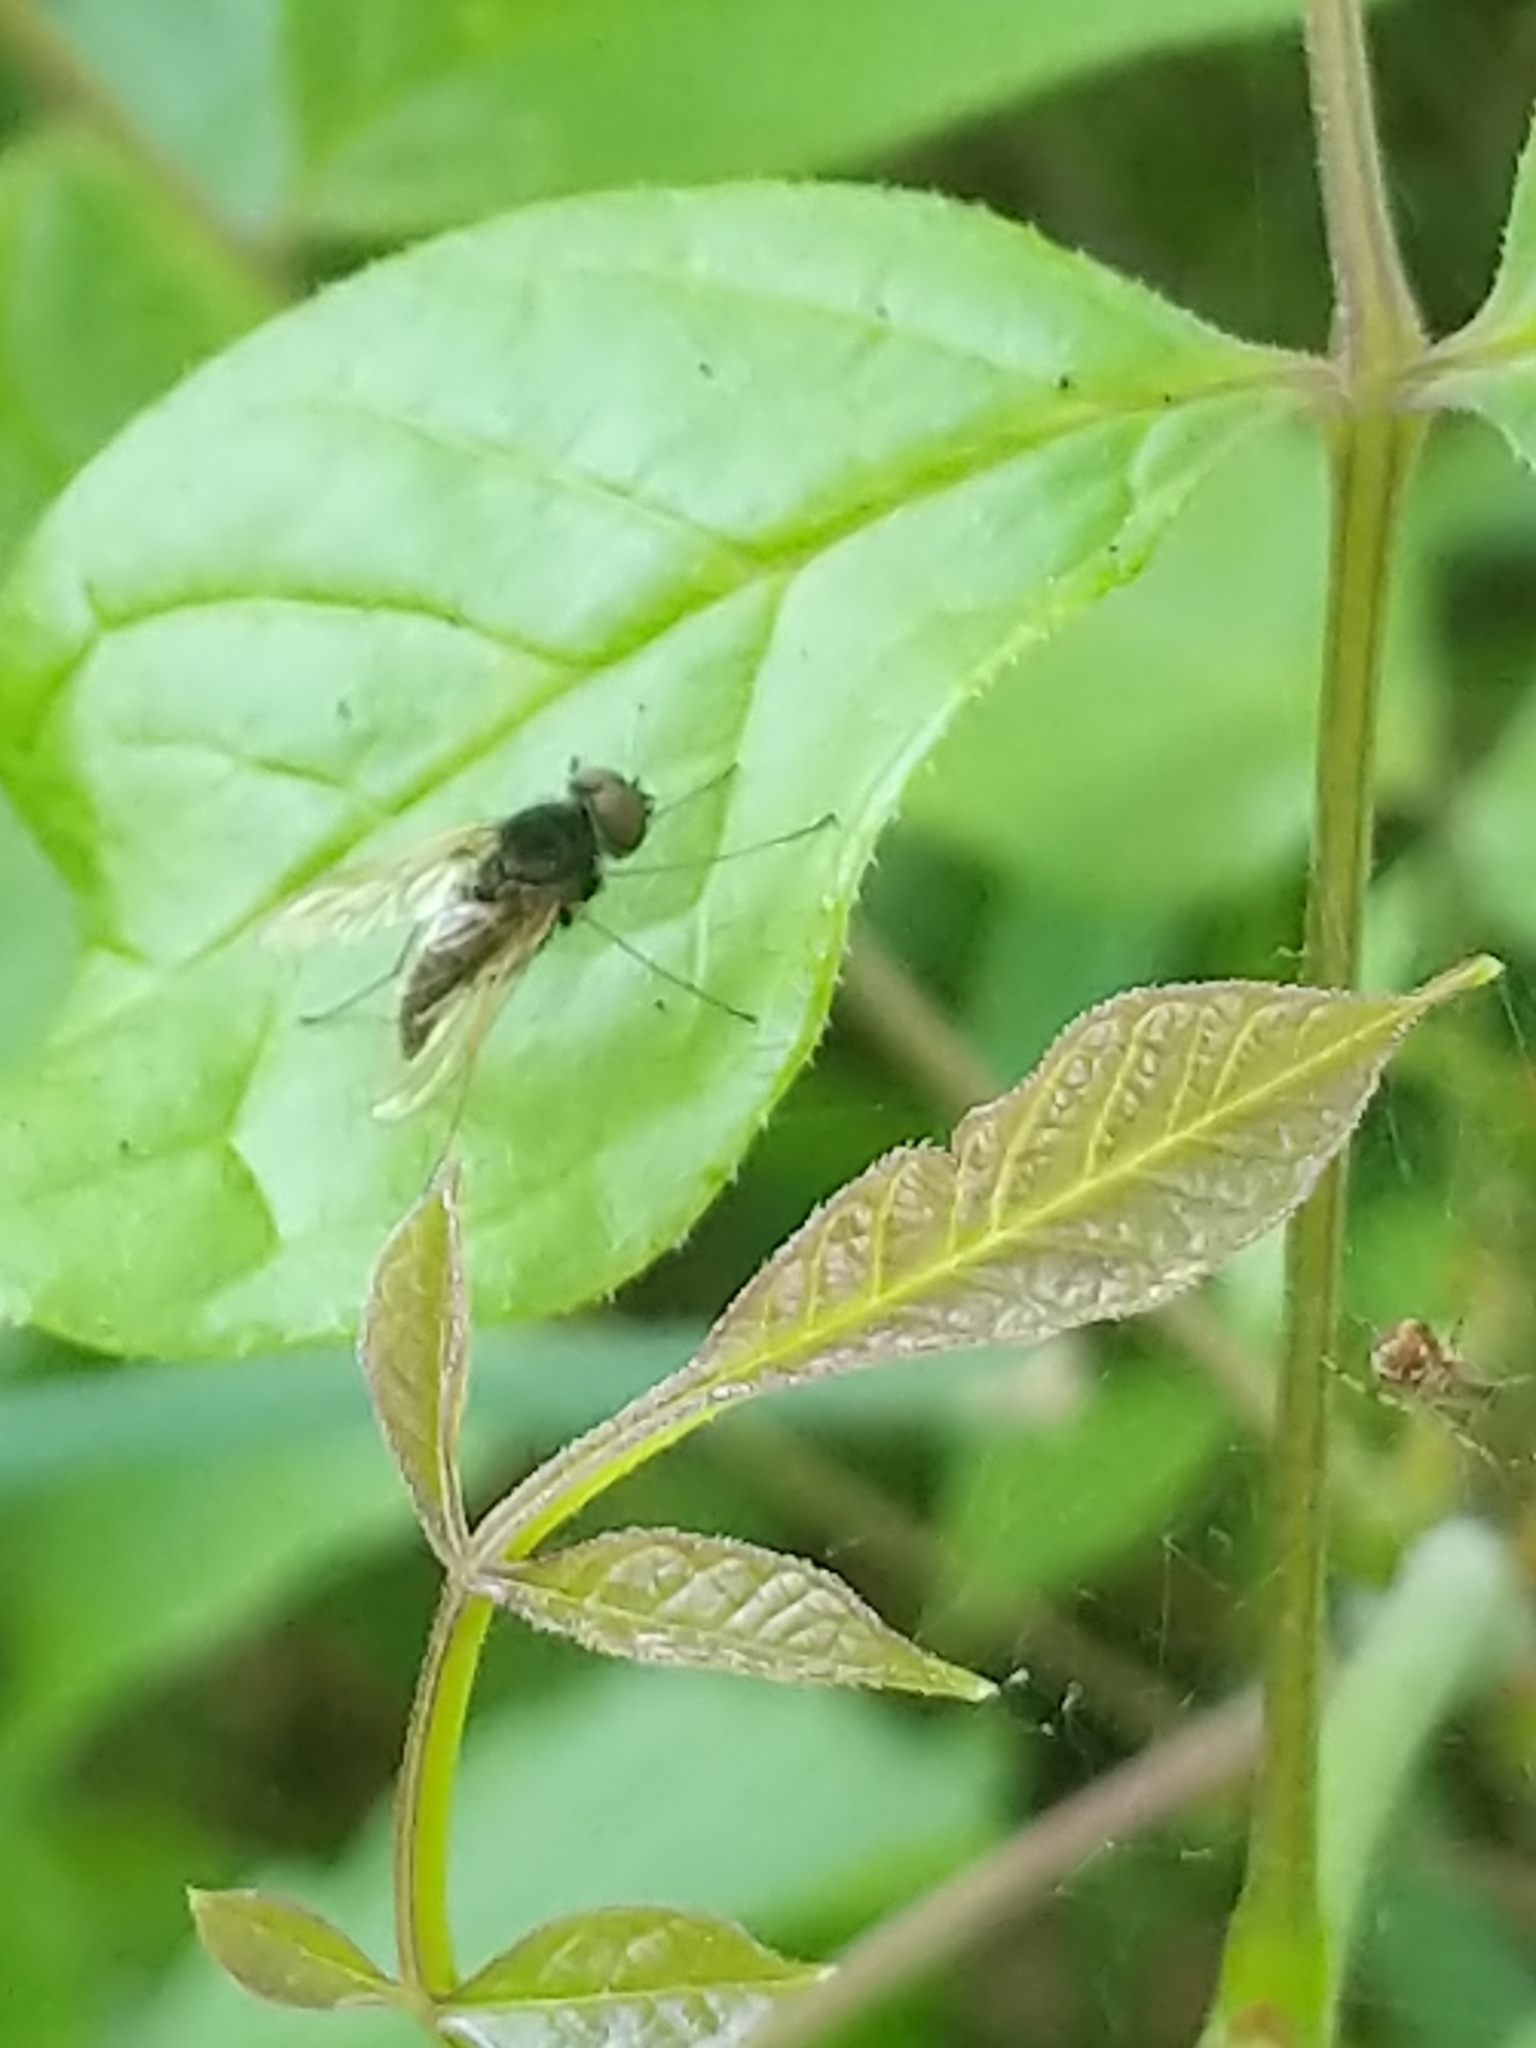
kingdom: Animalia
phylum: Arthropoda
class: Insecta
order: Diptera
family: Rhagionidae
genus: Chrysopilus
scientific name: Chrysopilus proximus
